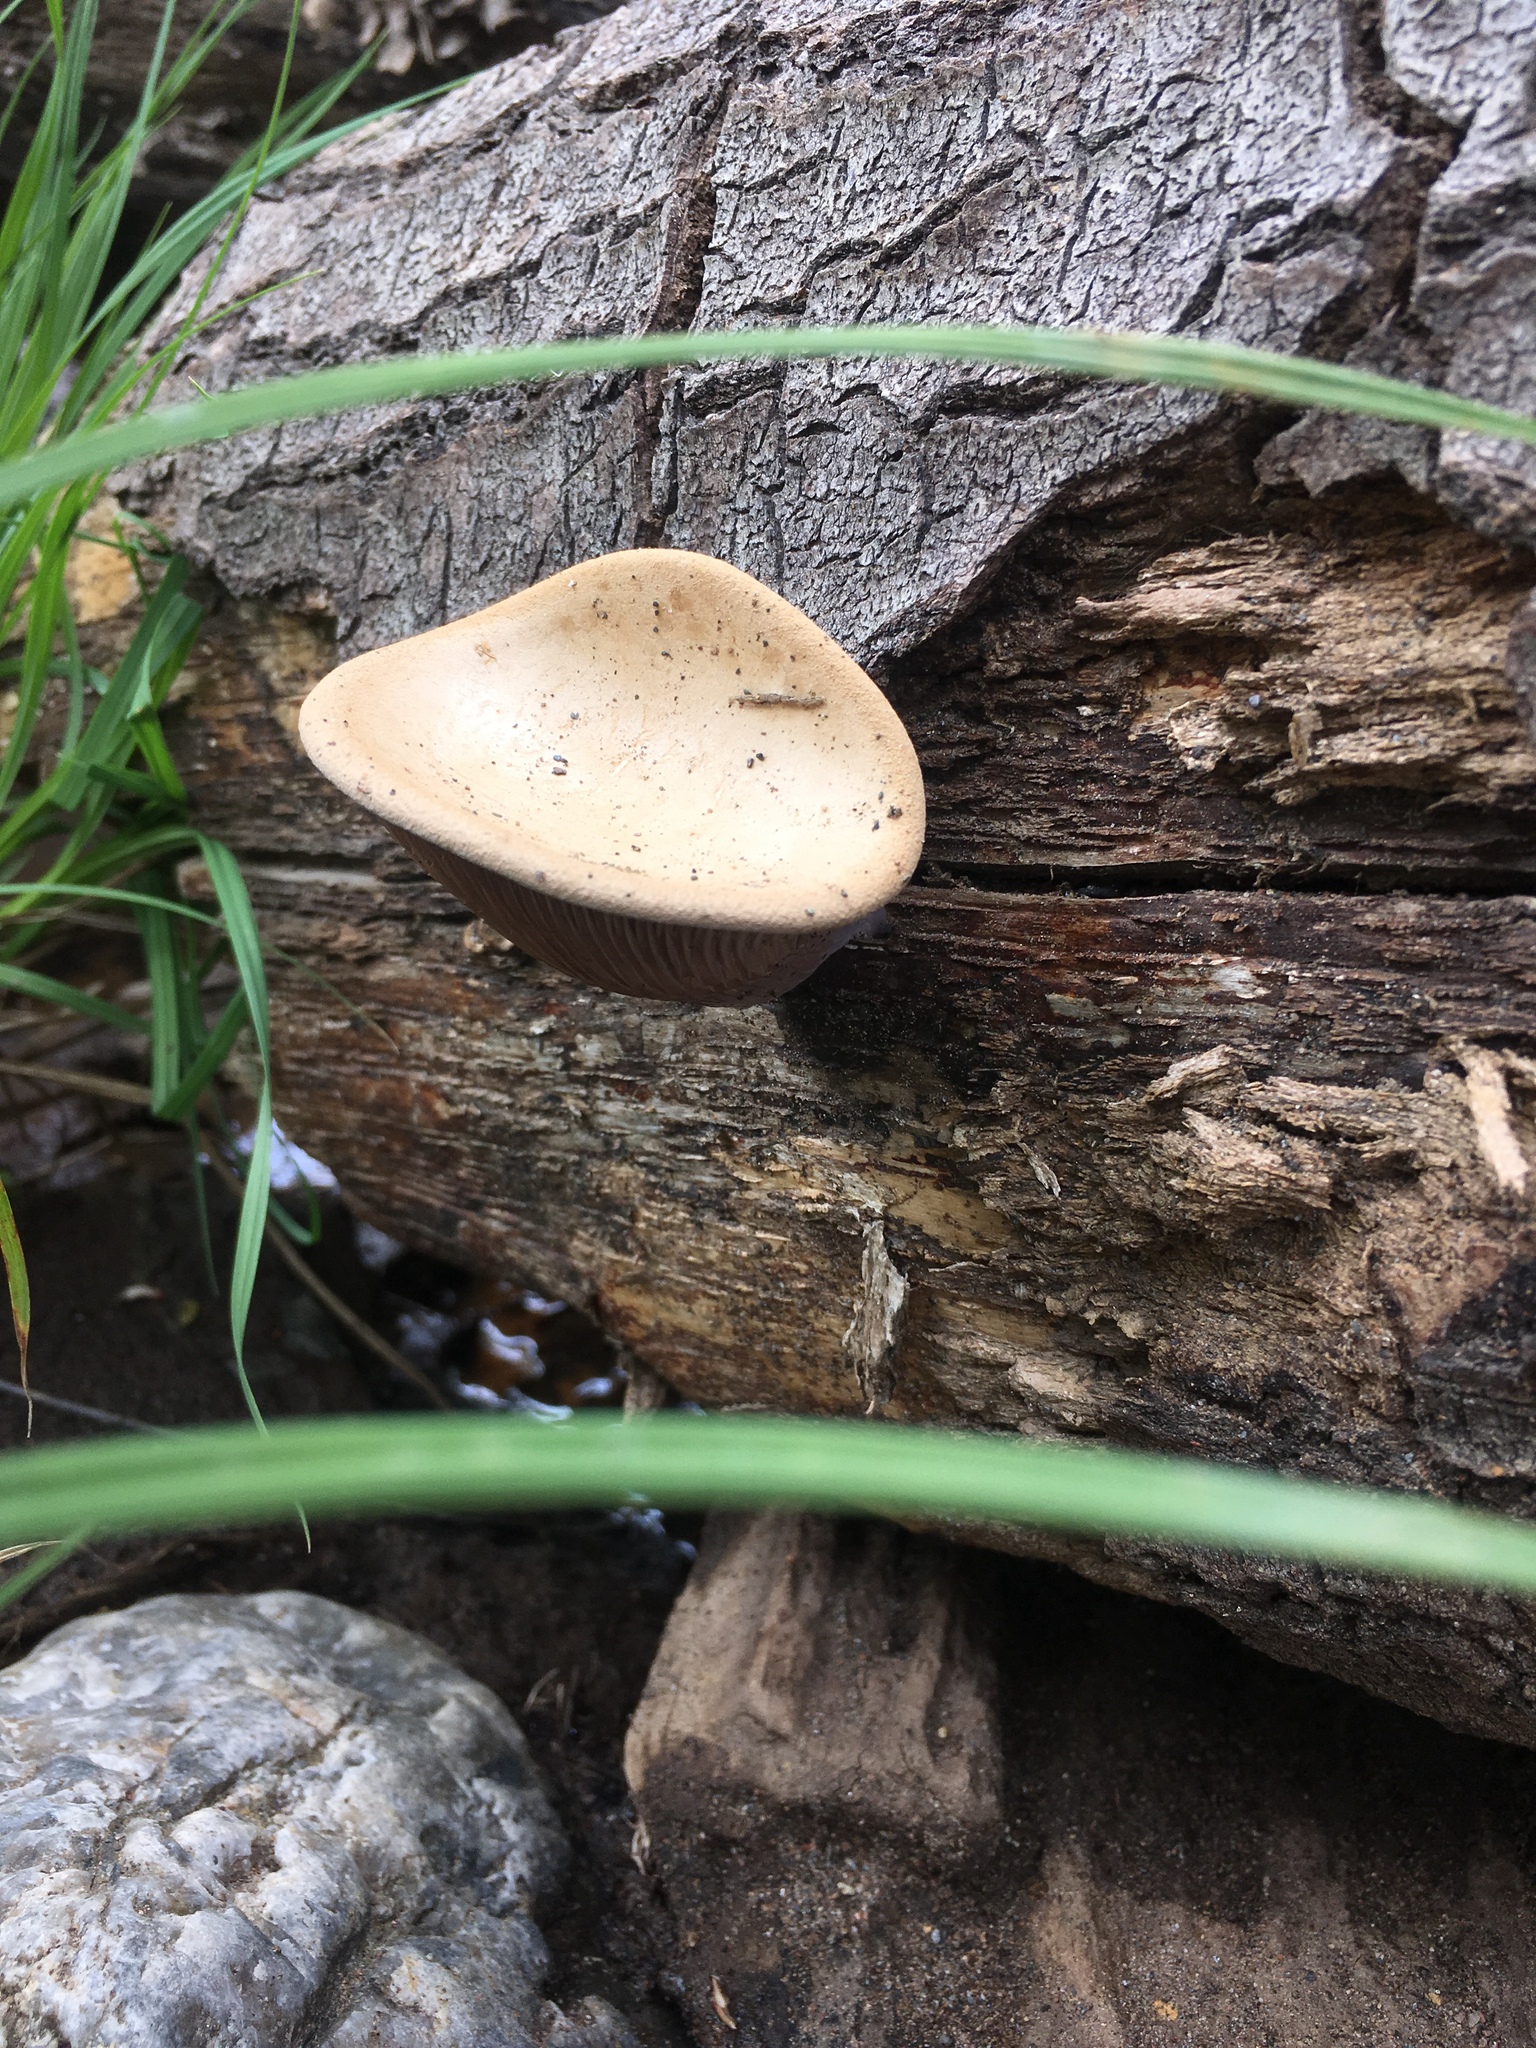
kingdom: Fungi
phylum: Basidiomycota
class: Agaricomycetes
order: Polyporales
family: Panaceae
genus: Panus
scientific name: Panus conchatus
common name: Lilac oysterling
